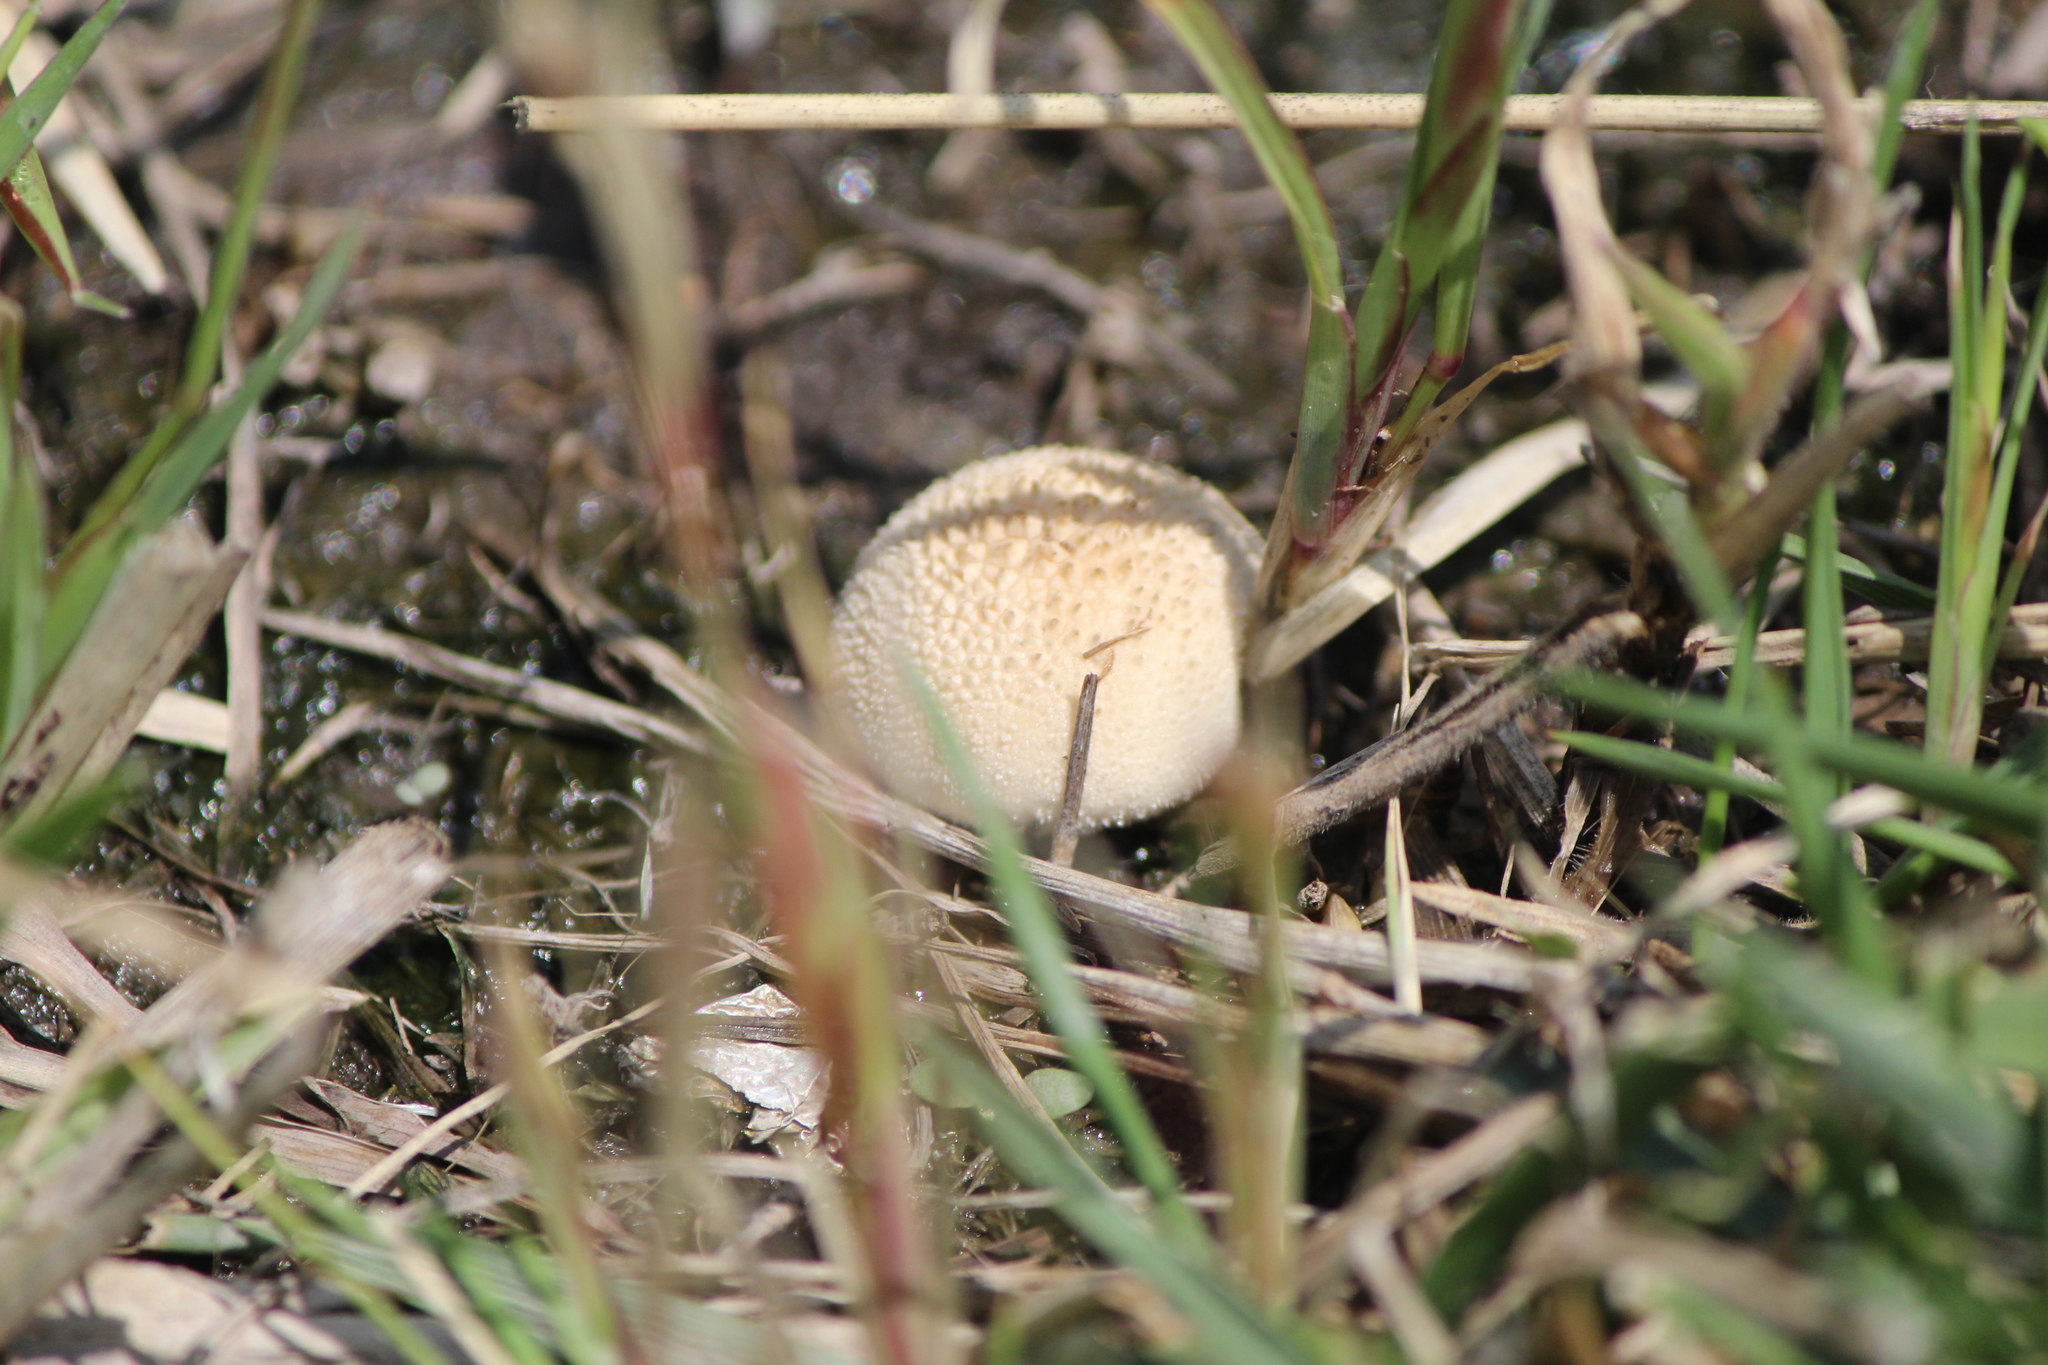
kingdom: Fungi
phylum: Basidiomycota
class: Agaricomycetes
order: Agaricales
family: Lycoperdaceae
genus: Lycoperdon
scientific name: Lycoperdon perlatum
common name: Common puffball
